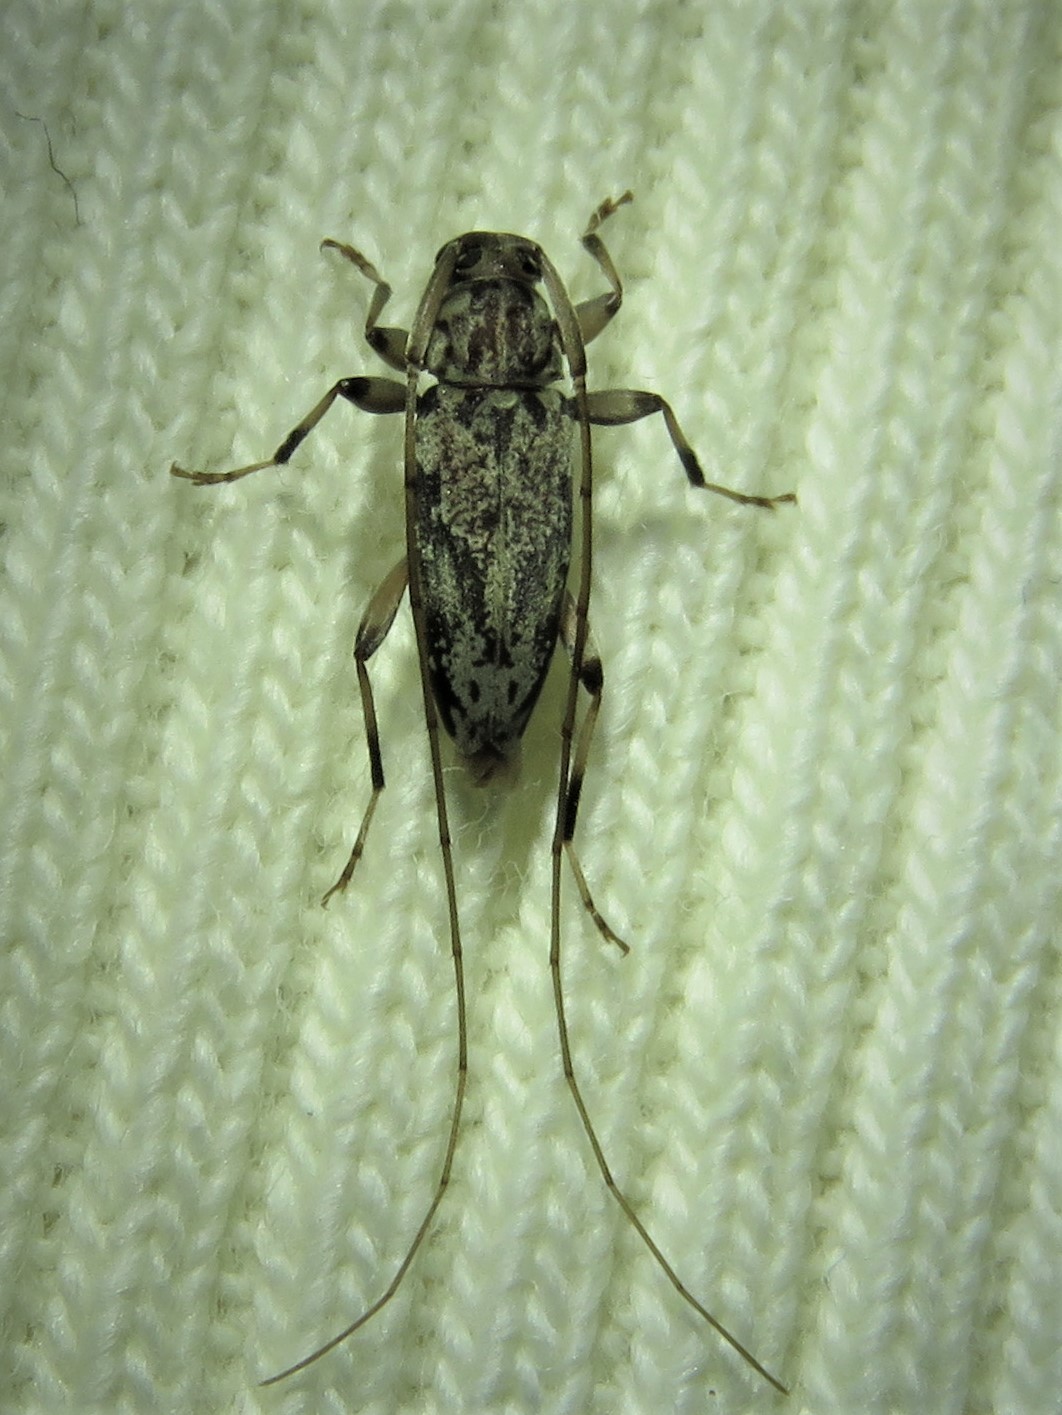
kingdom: Animalia
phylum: Arthropoda
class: Insecta
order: Coleoptera
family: Cerambycidae
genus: Lepturges
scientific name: Lepturges angulatus
